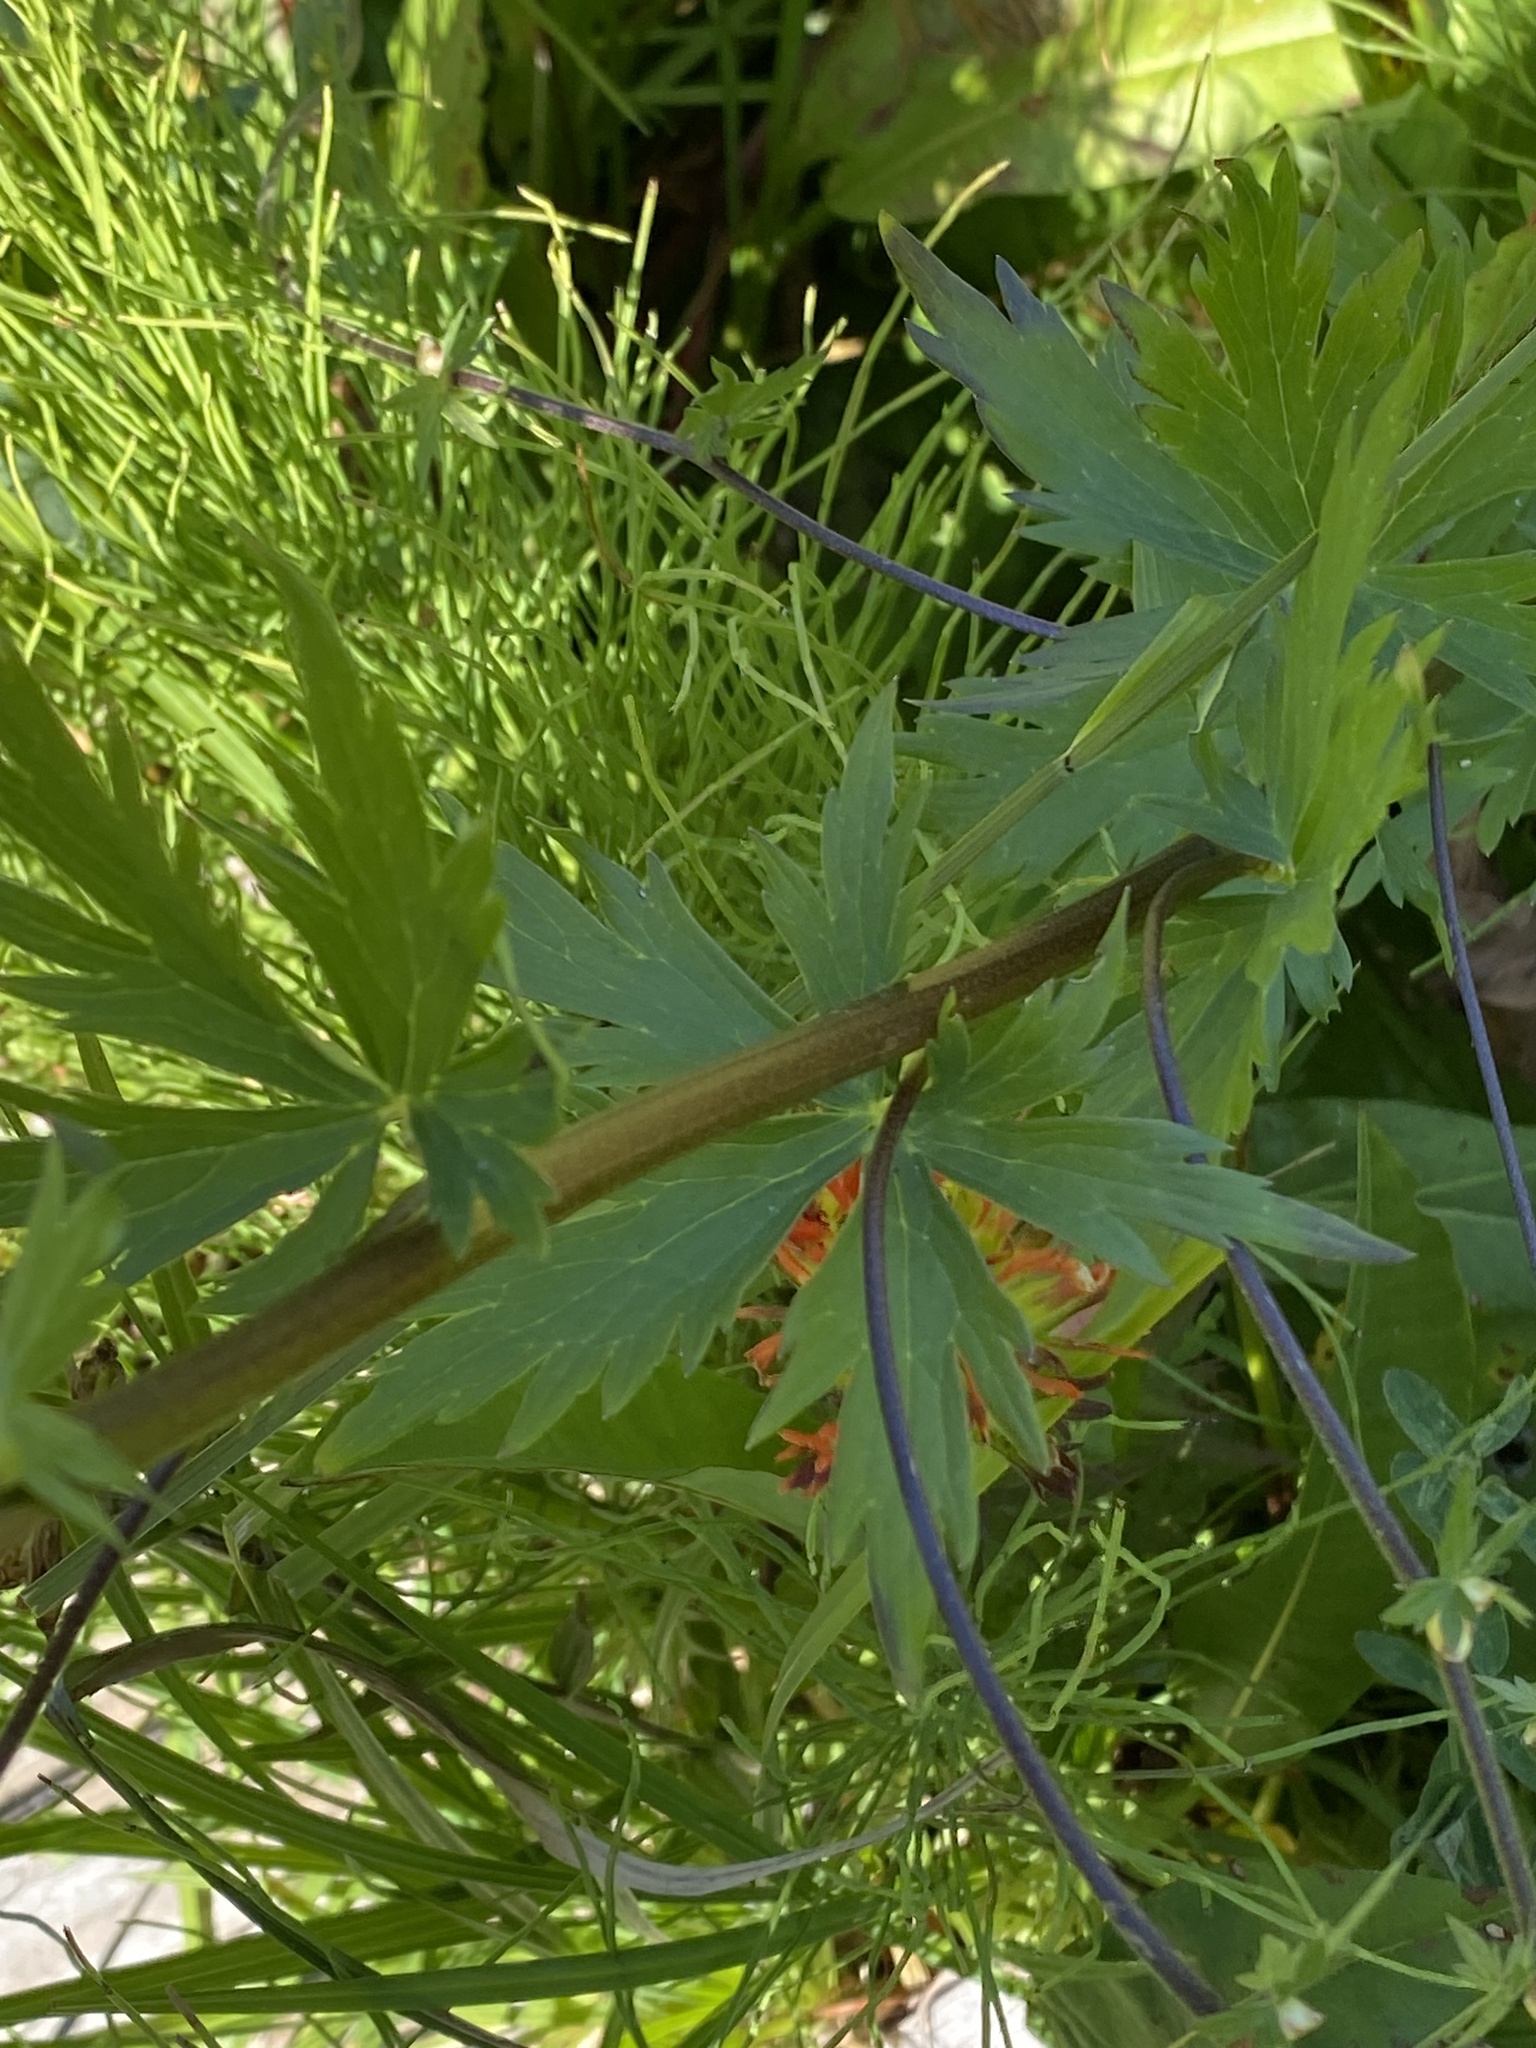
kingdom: Plantae
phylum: Tracheophyta
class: Magnoliopsida
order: Ranunculales
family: Ranunculaceae
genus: Aconitum
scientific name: Aconitum columbianum
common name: Columbia aconite
